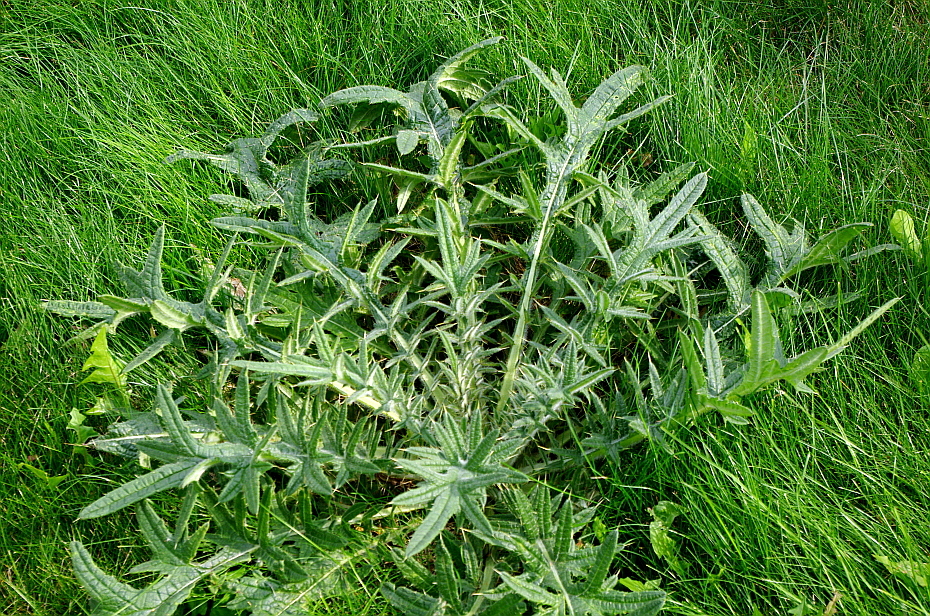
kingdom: Plantae
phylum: Tracheophyta
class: Magnoliopsida
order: Asterales
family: Asteraceae
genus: Cirsium
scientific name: Cirsium vulgare
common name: Bull thistle
